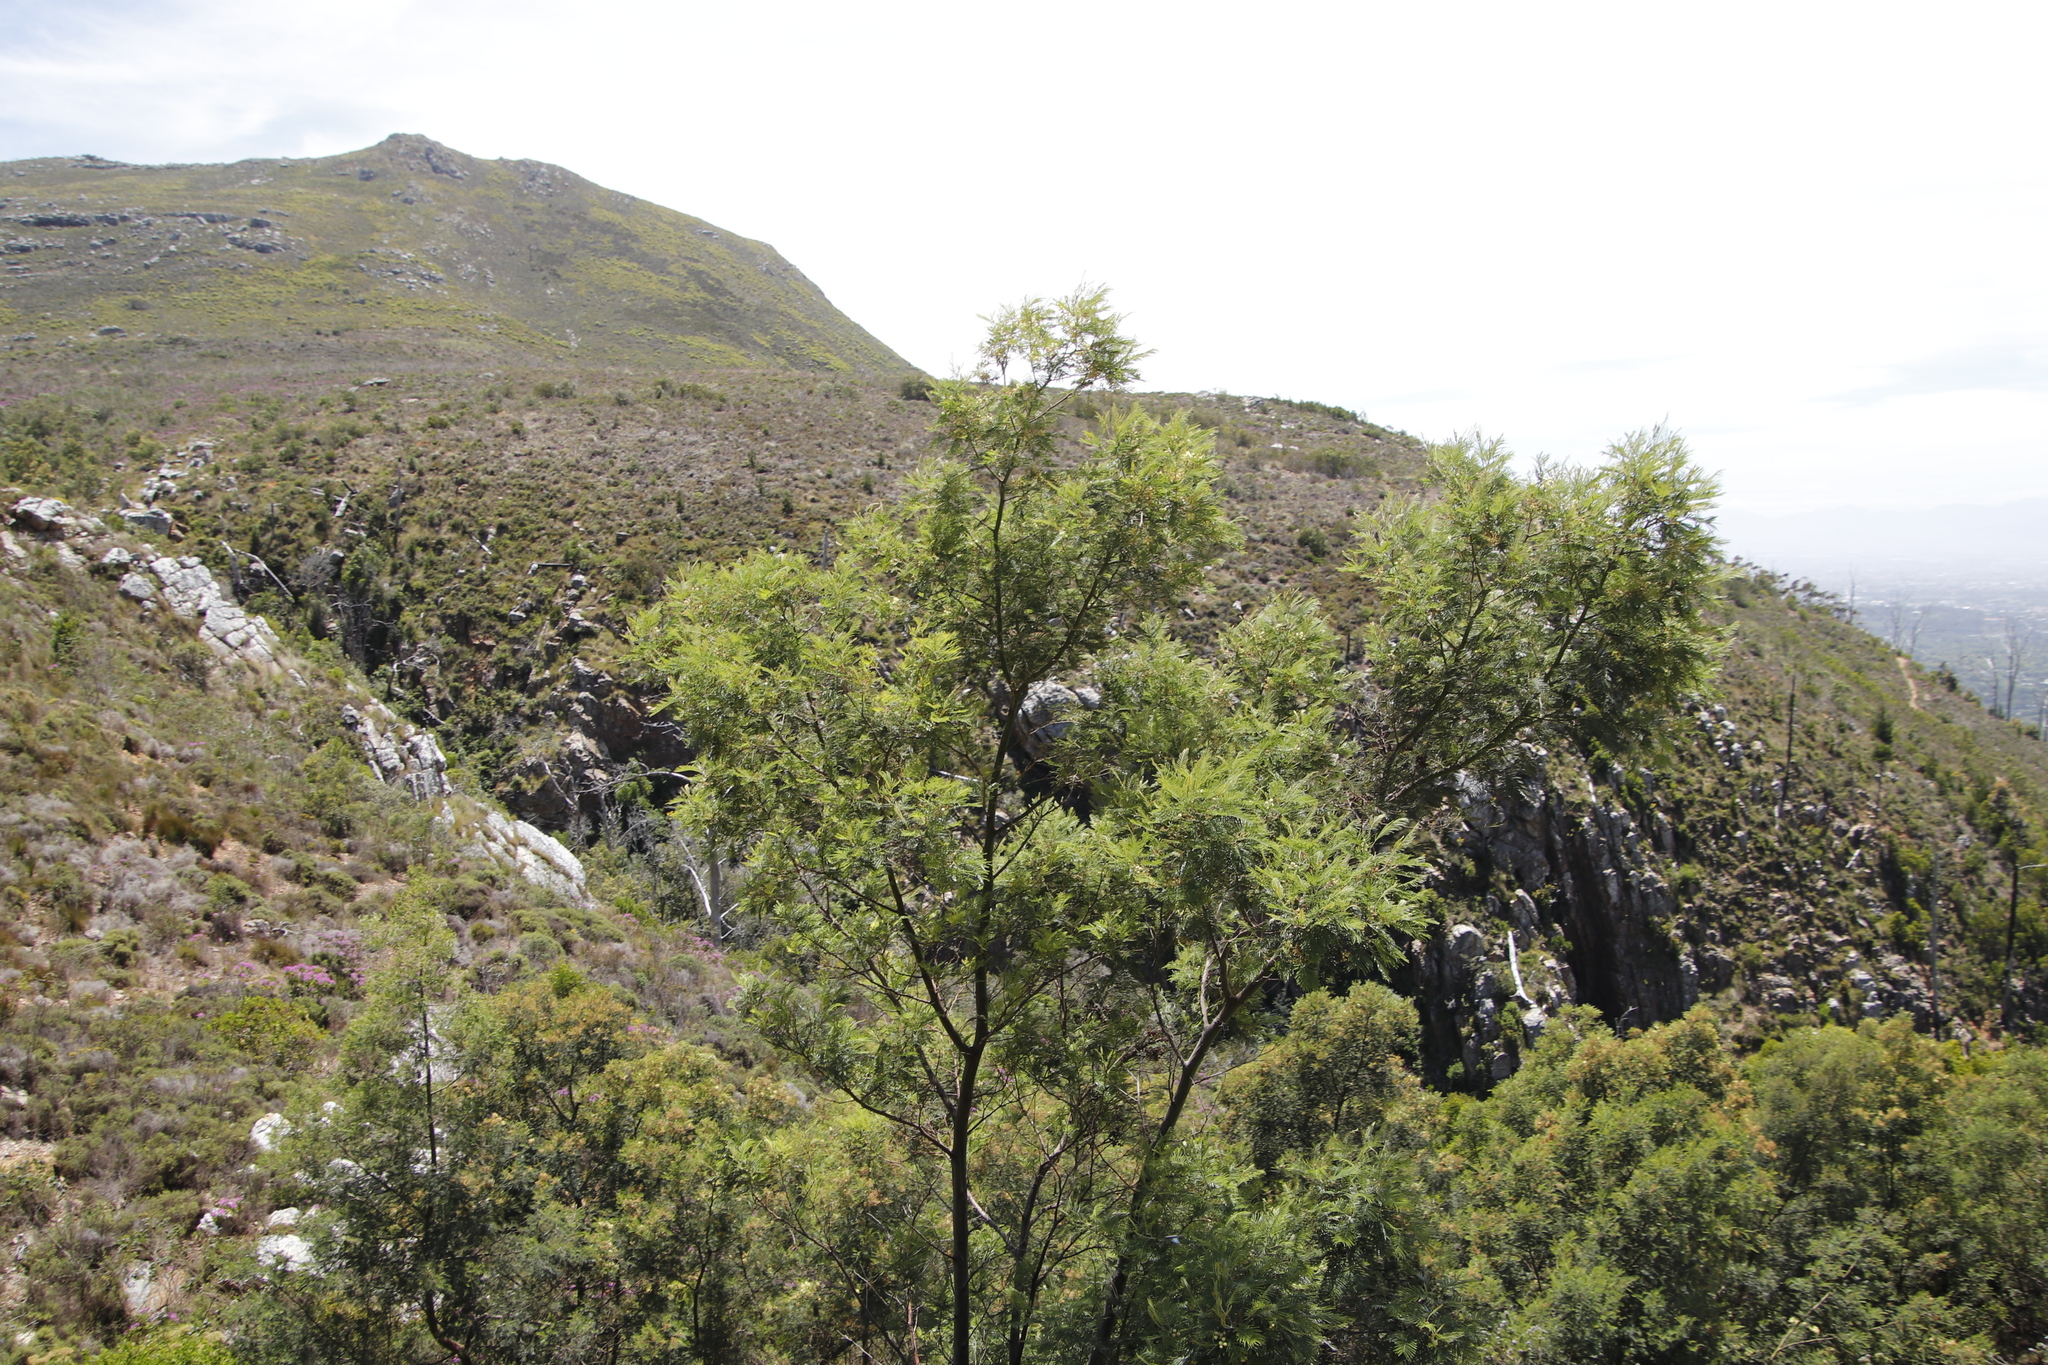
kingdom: Plantae
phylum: Tracheophyta
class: Magnoliopsida
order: Fabales
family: Fabaceae
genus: Acacia
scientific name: Acacia mearnsii
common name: Black wattle
